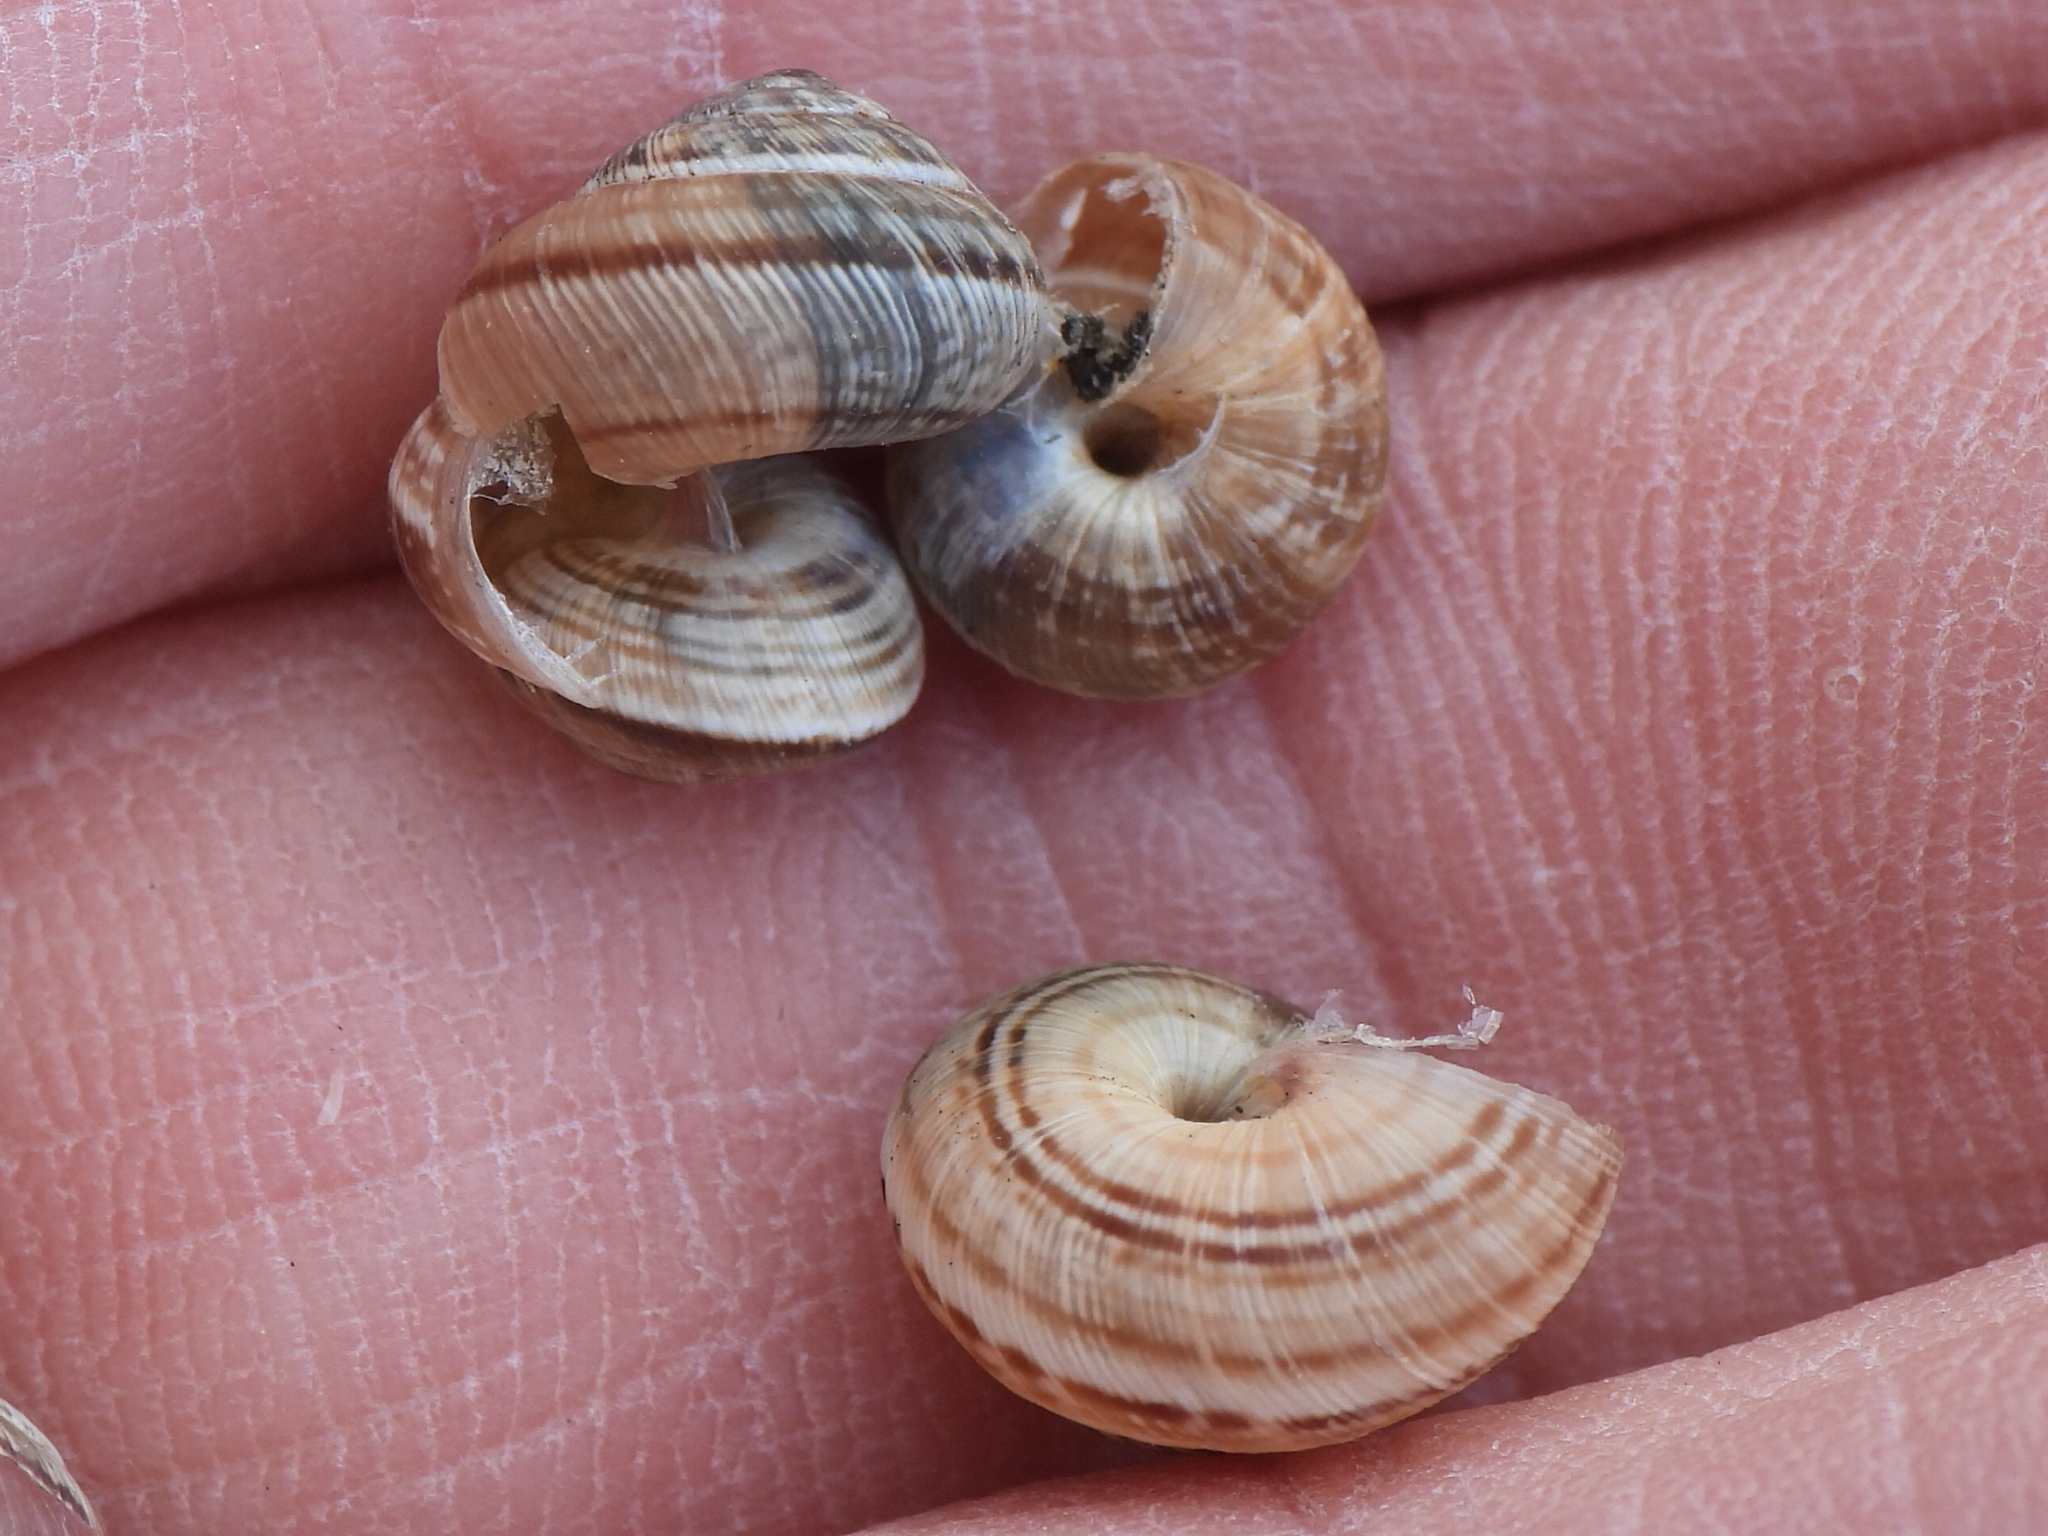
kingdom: Animalia
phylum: Mollusca
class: Gastropoda
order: Stylommatophora
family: Geomitridae
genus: Cernuella
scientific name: Cernuella cisalpina
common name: Maritime gardensnail
